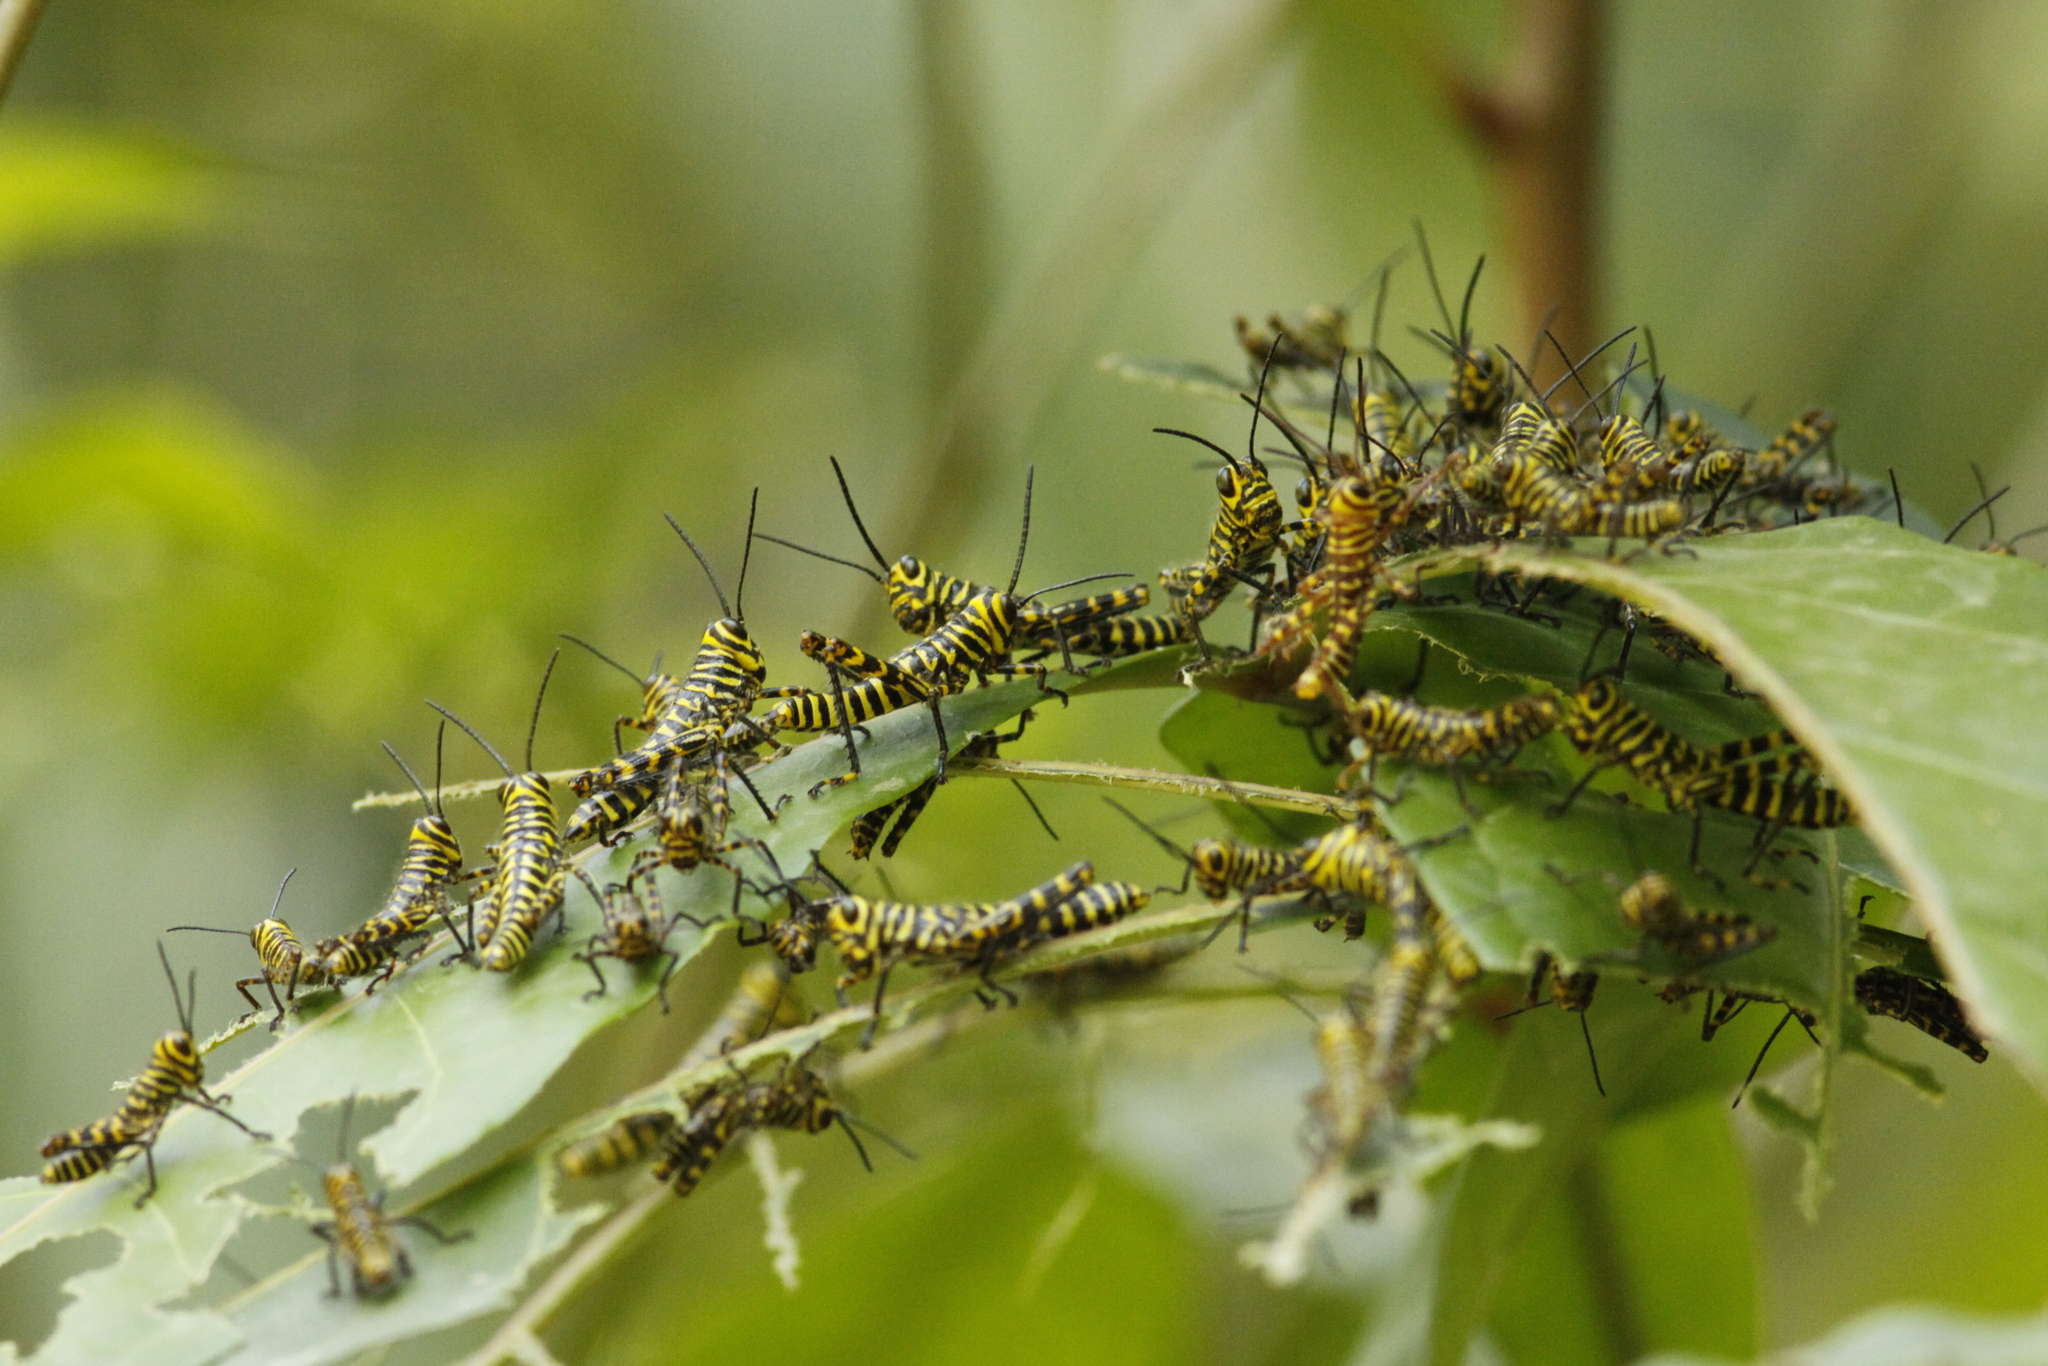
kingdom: Animalia
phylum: Arthropoda
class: Insecta
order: Orthoptera
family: Romaleidae
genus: Tropidacris
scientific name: Tropidacris cristata
